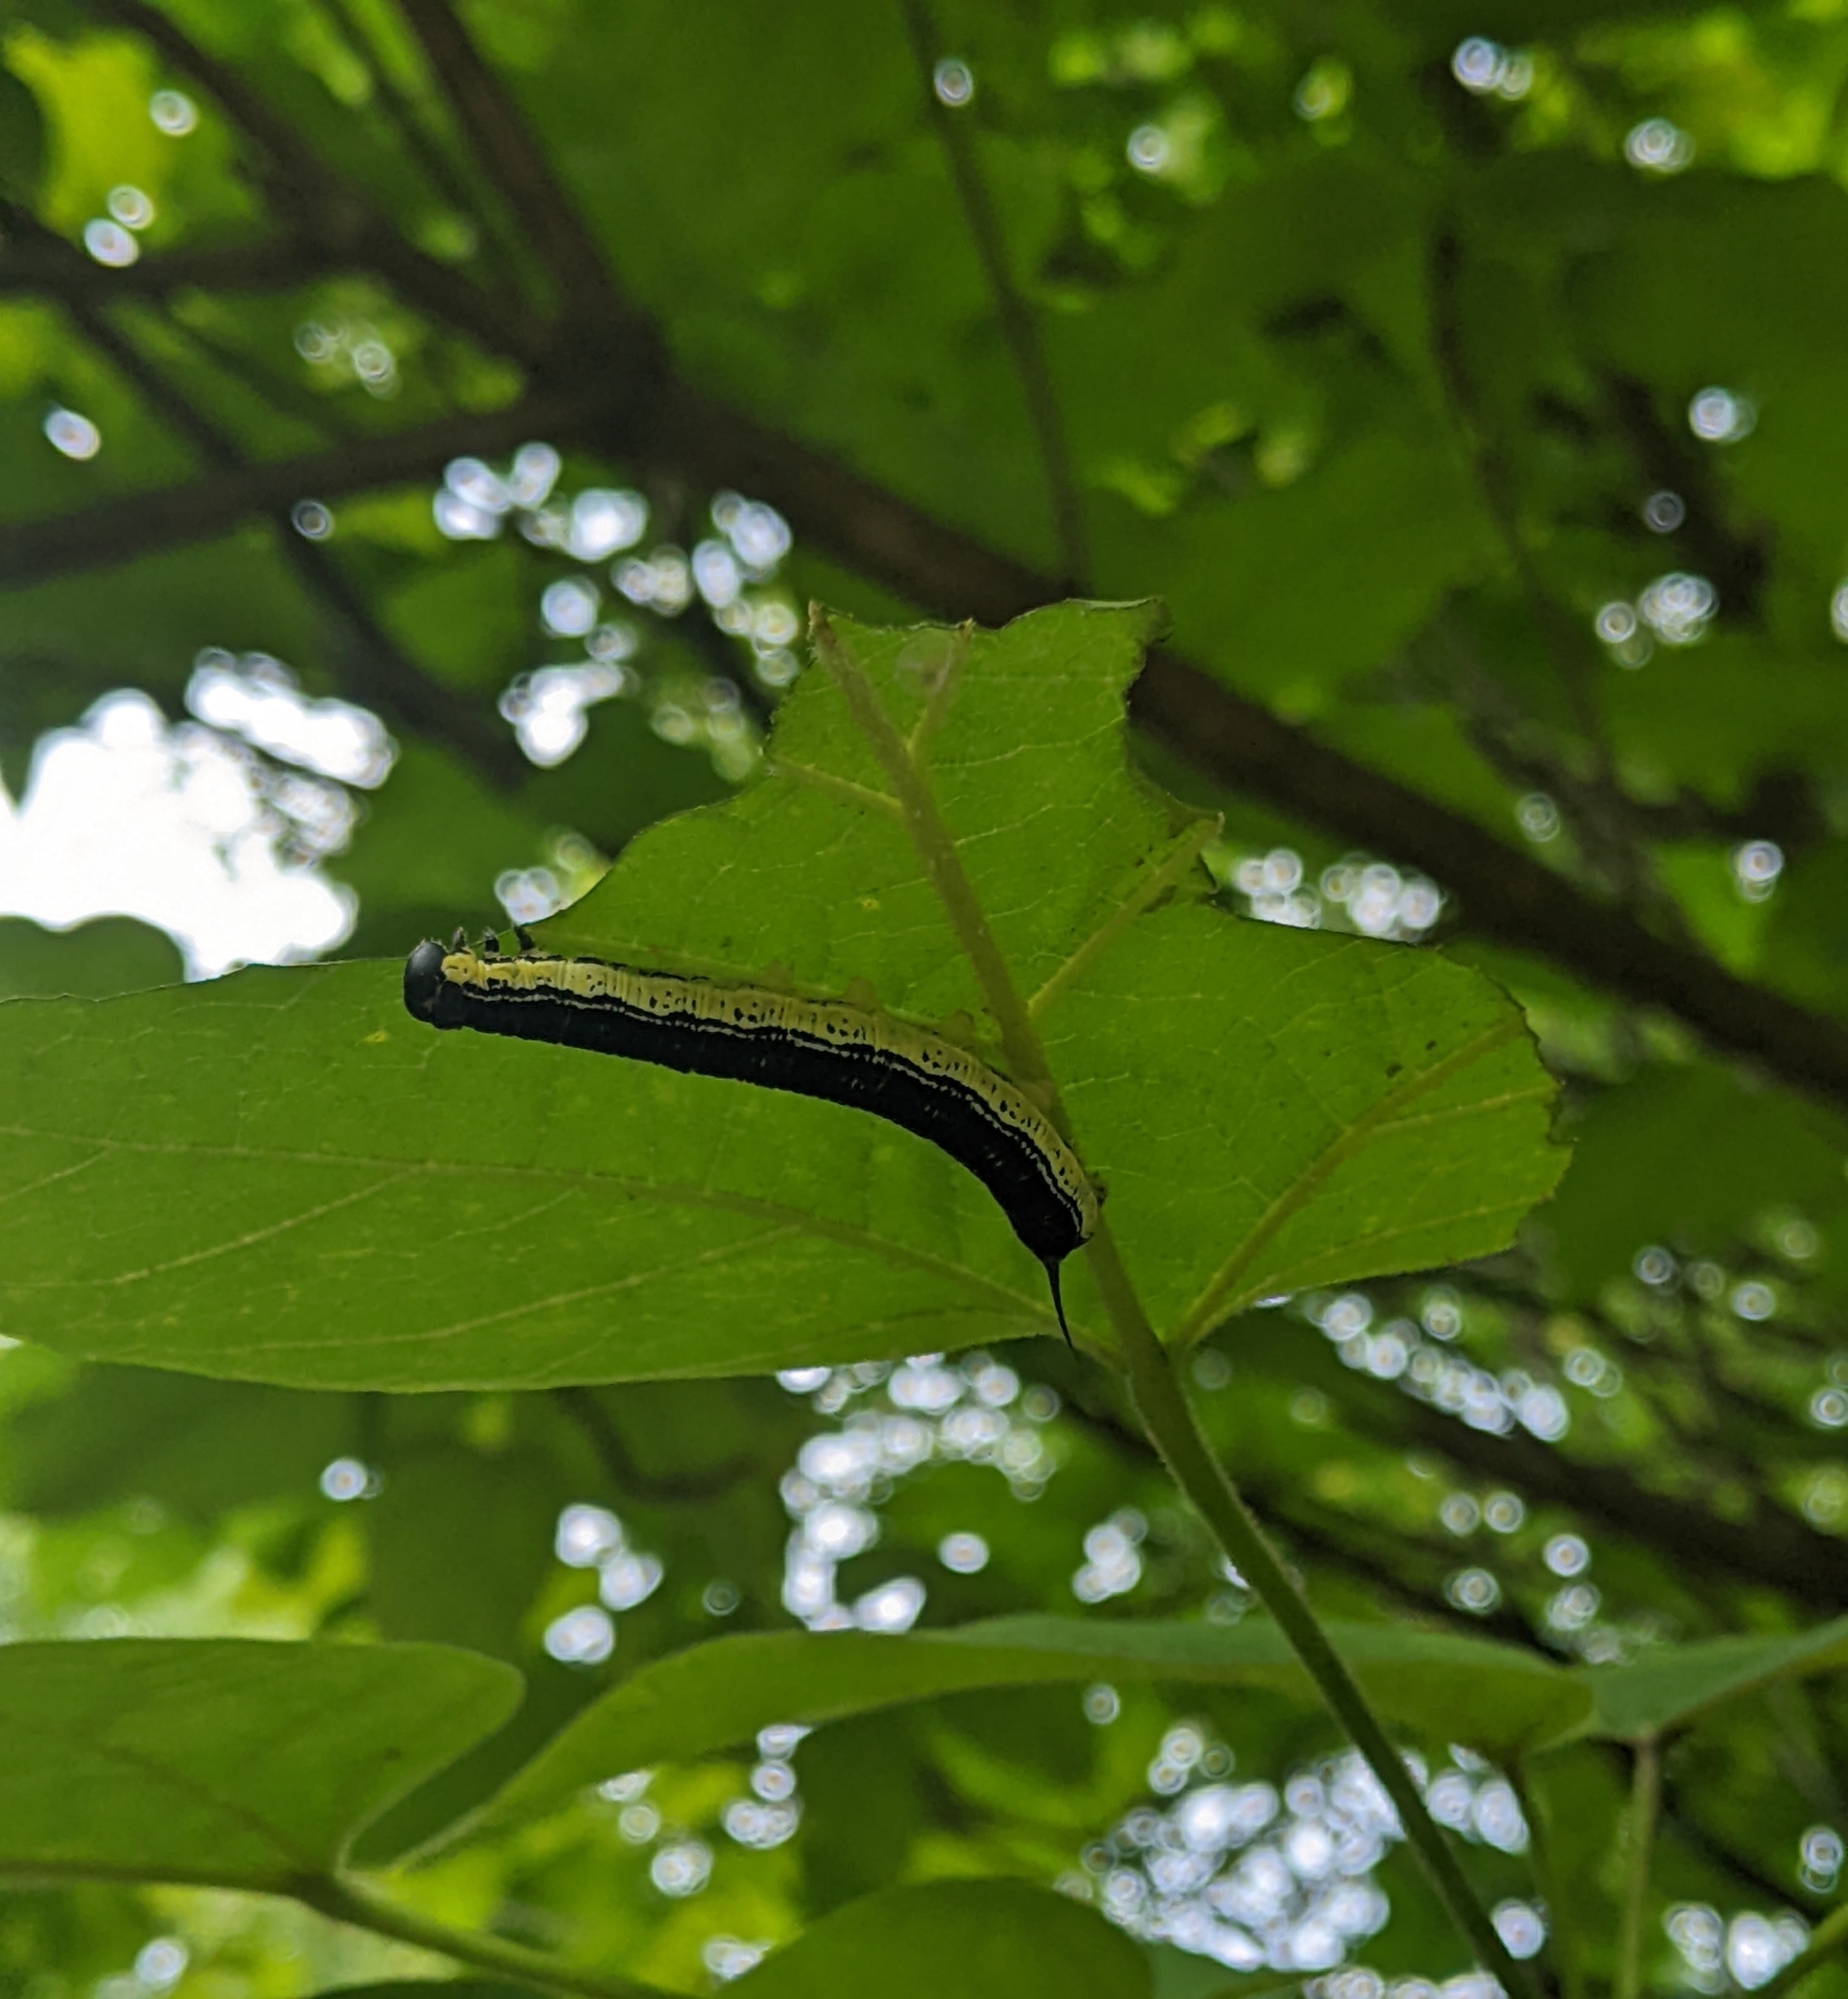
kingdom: Animalia
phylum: Arthropoda
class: Insecta
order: Lepidoptera
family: Sphingidae
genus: Ceratomia
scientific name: Ceratomia catalpae
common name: Catalpa hornworm
